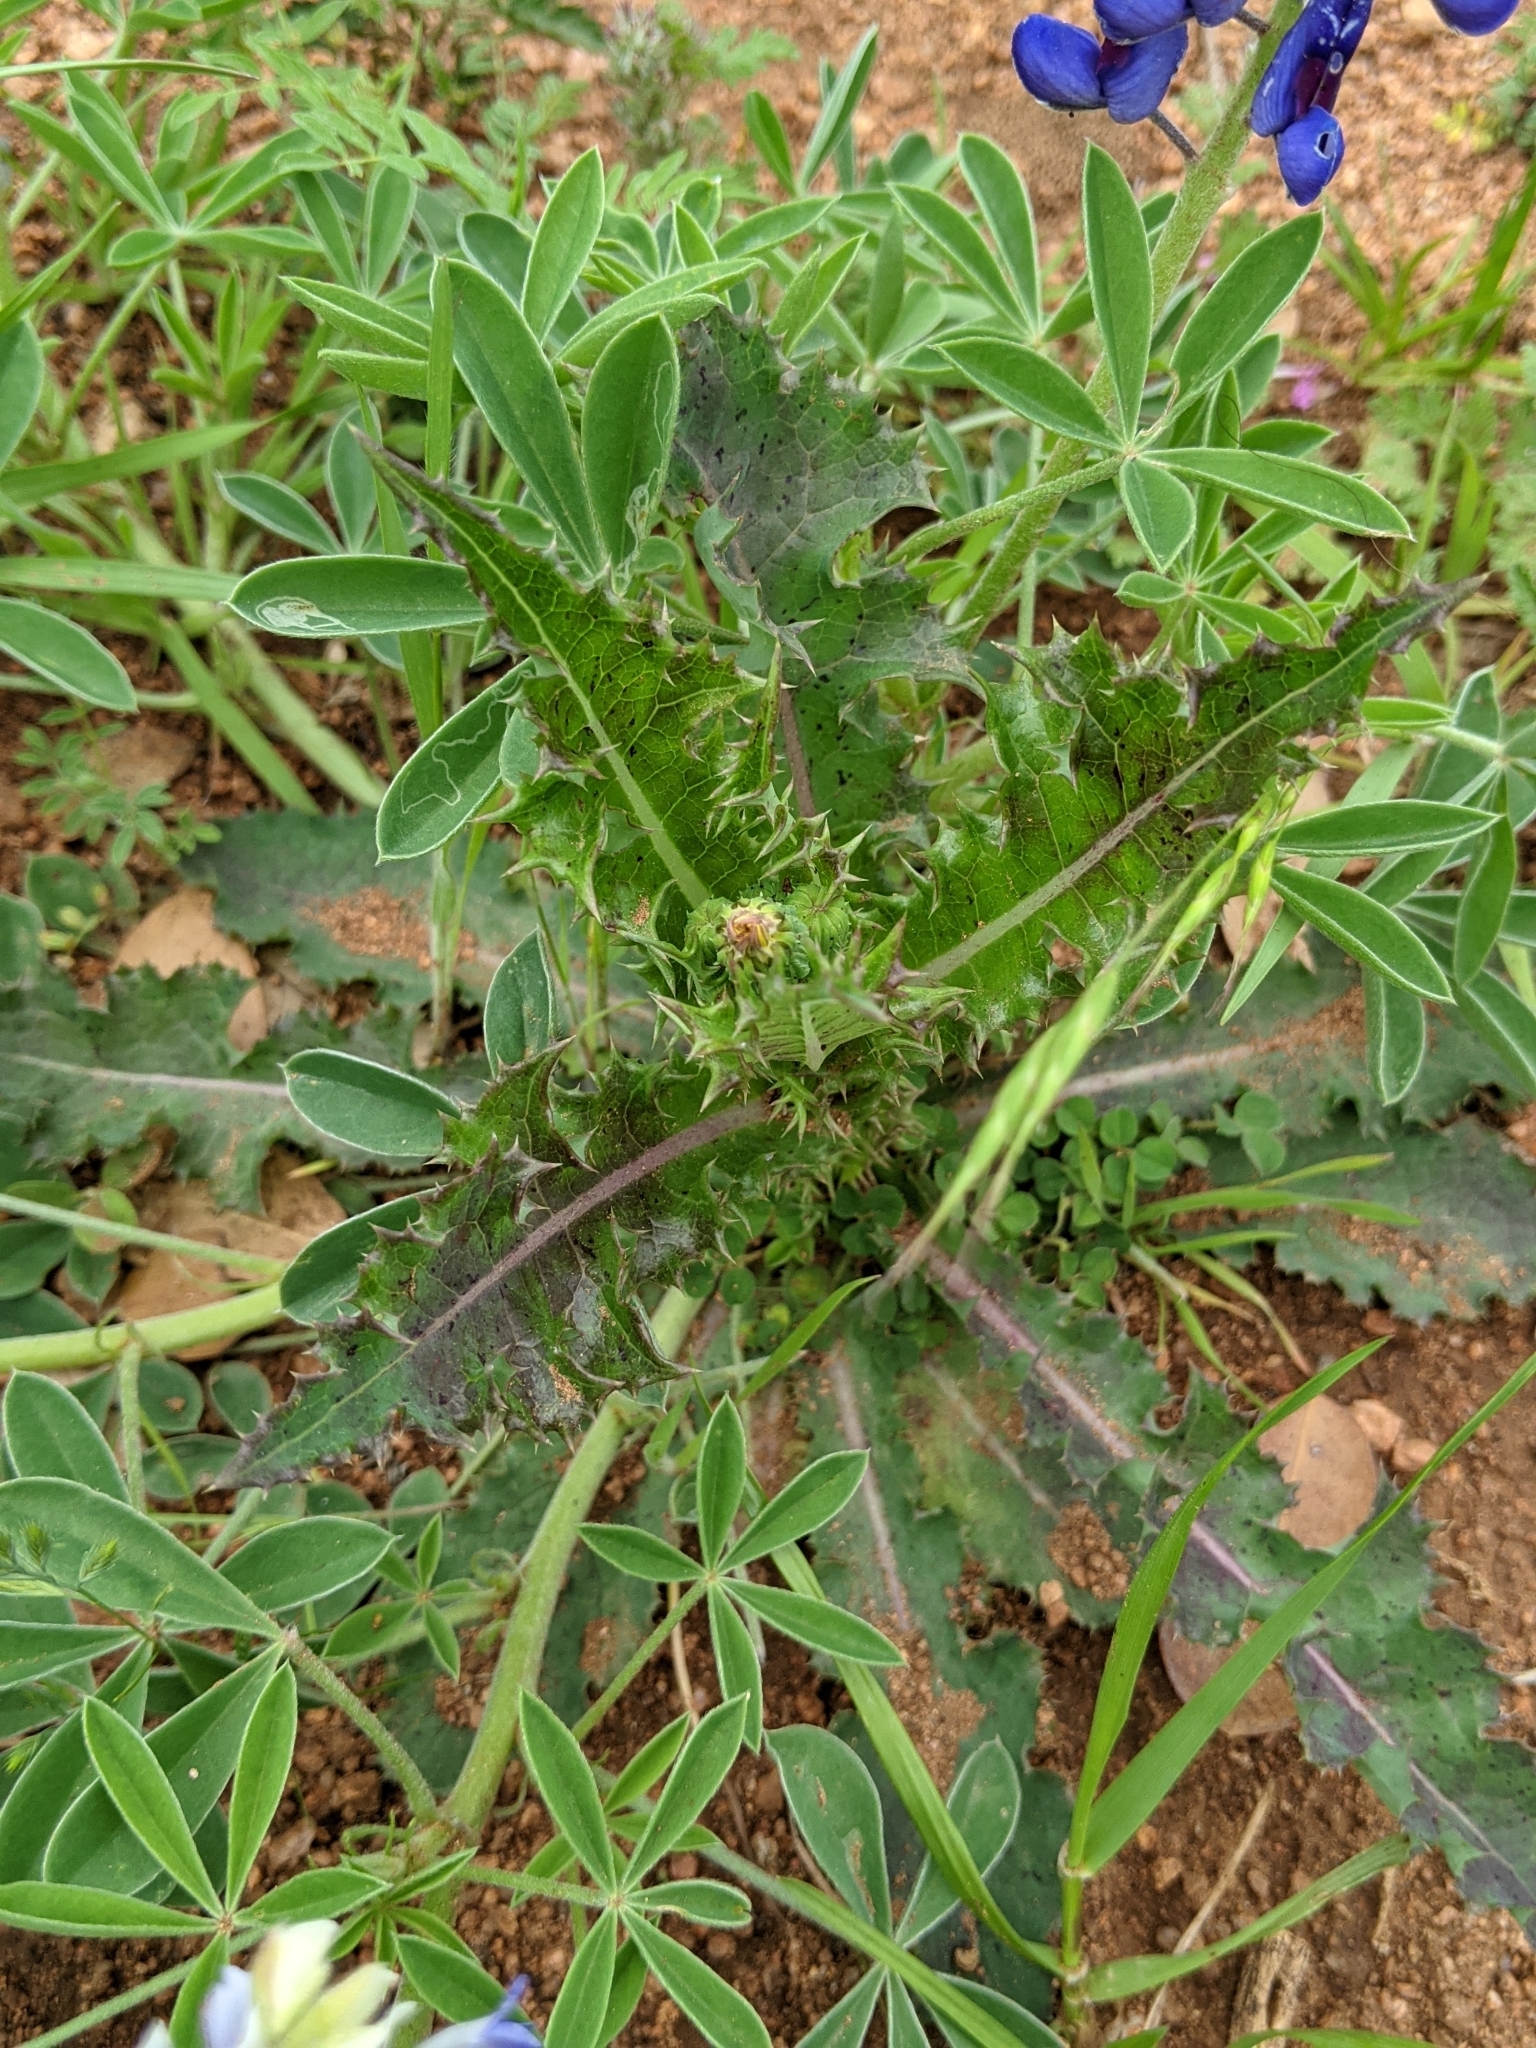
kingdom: Plantae
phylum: Tracheophyta
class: Magnoliopsida
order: Asterales
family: Asteraceae
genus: Sonchus
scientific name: Sonchus asper
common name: Prickly sow-thistle
